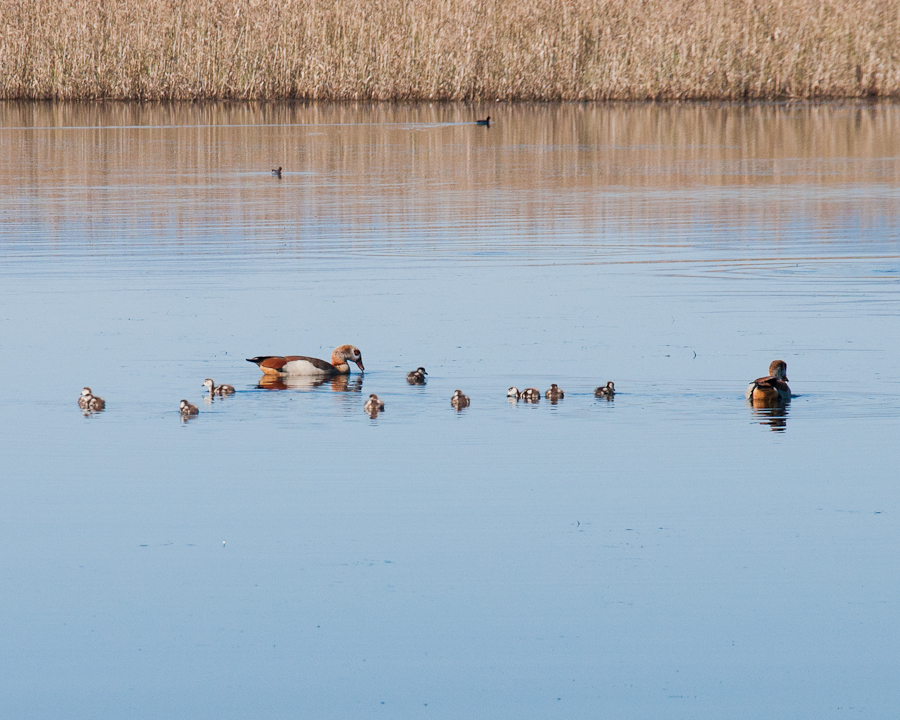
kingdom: Animalia
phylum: Chordata
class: Aves
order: Anseriformes
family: Anatidae
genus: Alopochen
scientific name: Alopochen aegyptiaca
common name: Egyptian goose
